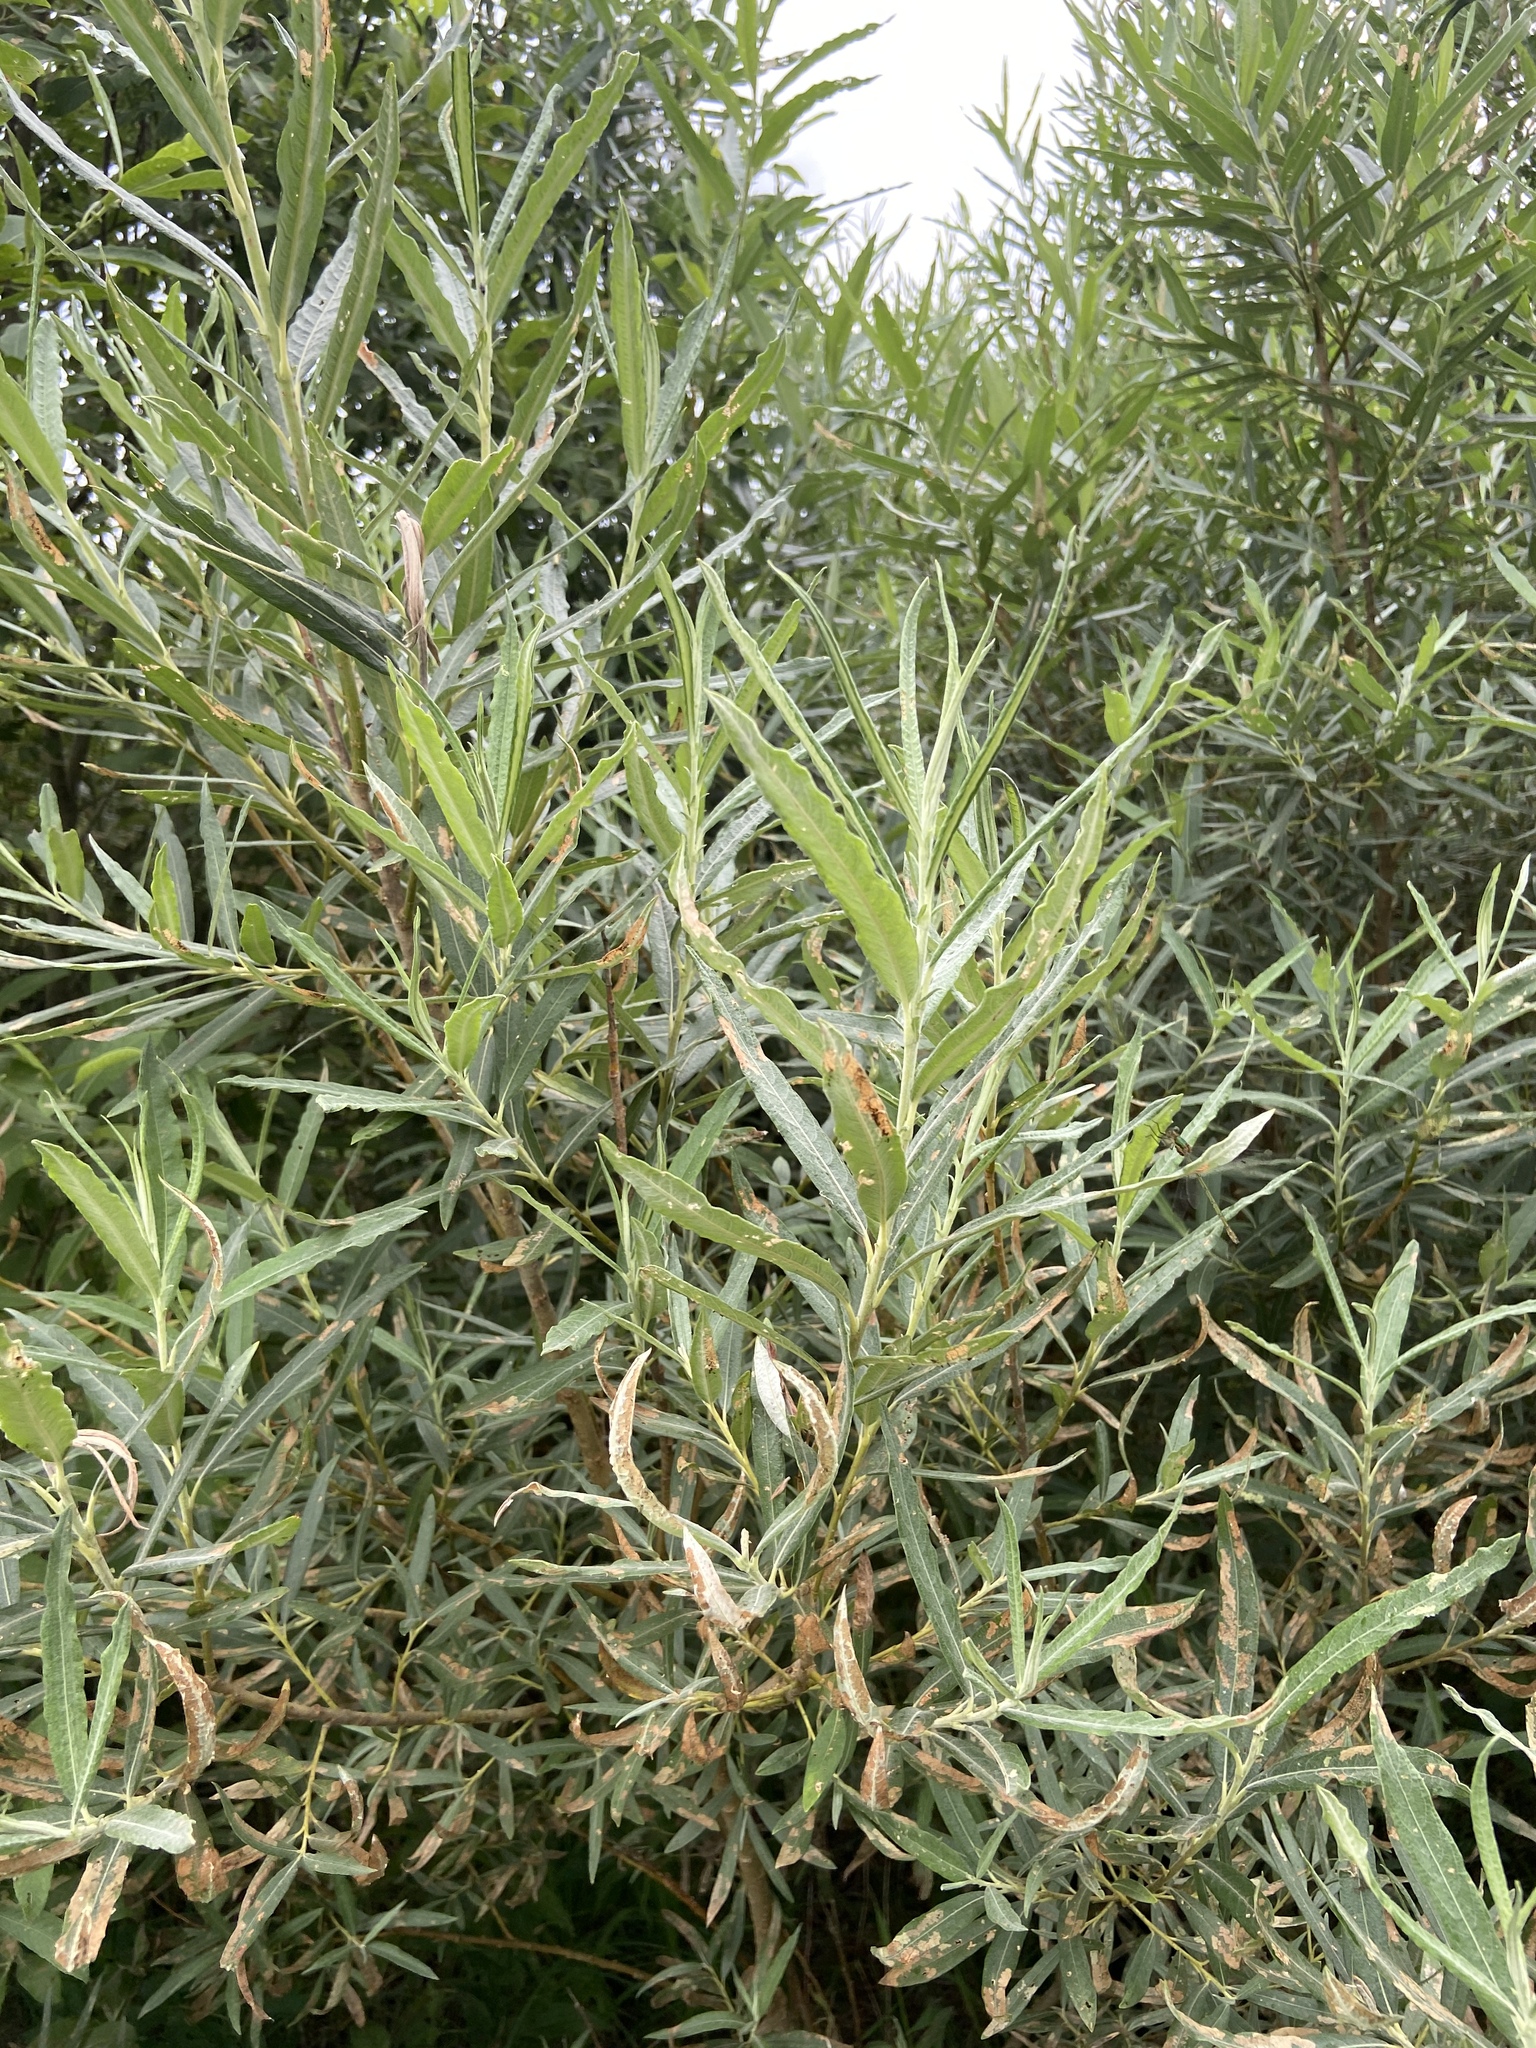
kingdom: Plantae
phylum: Tracheophyta
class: Magnoliopsida
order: Malpighiales
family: Salicaceae
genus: Salix
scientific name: Salix viminalis
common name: Osier
